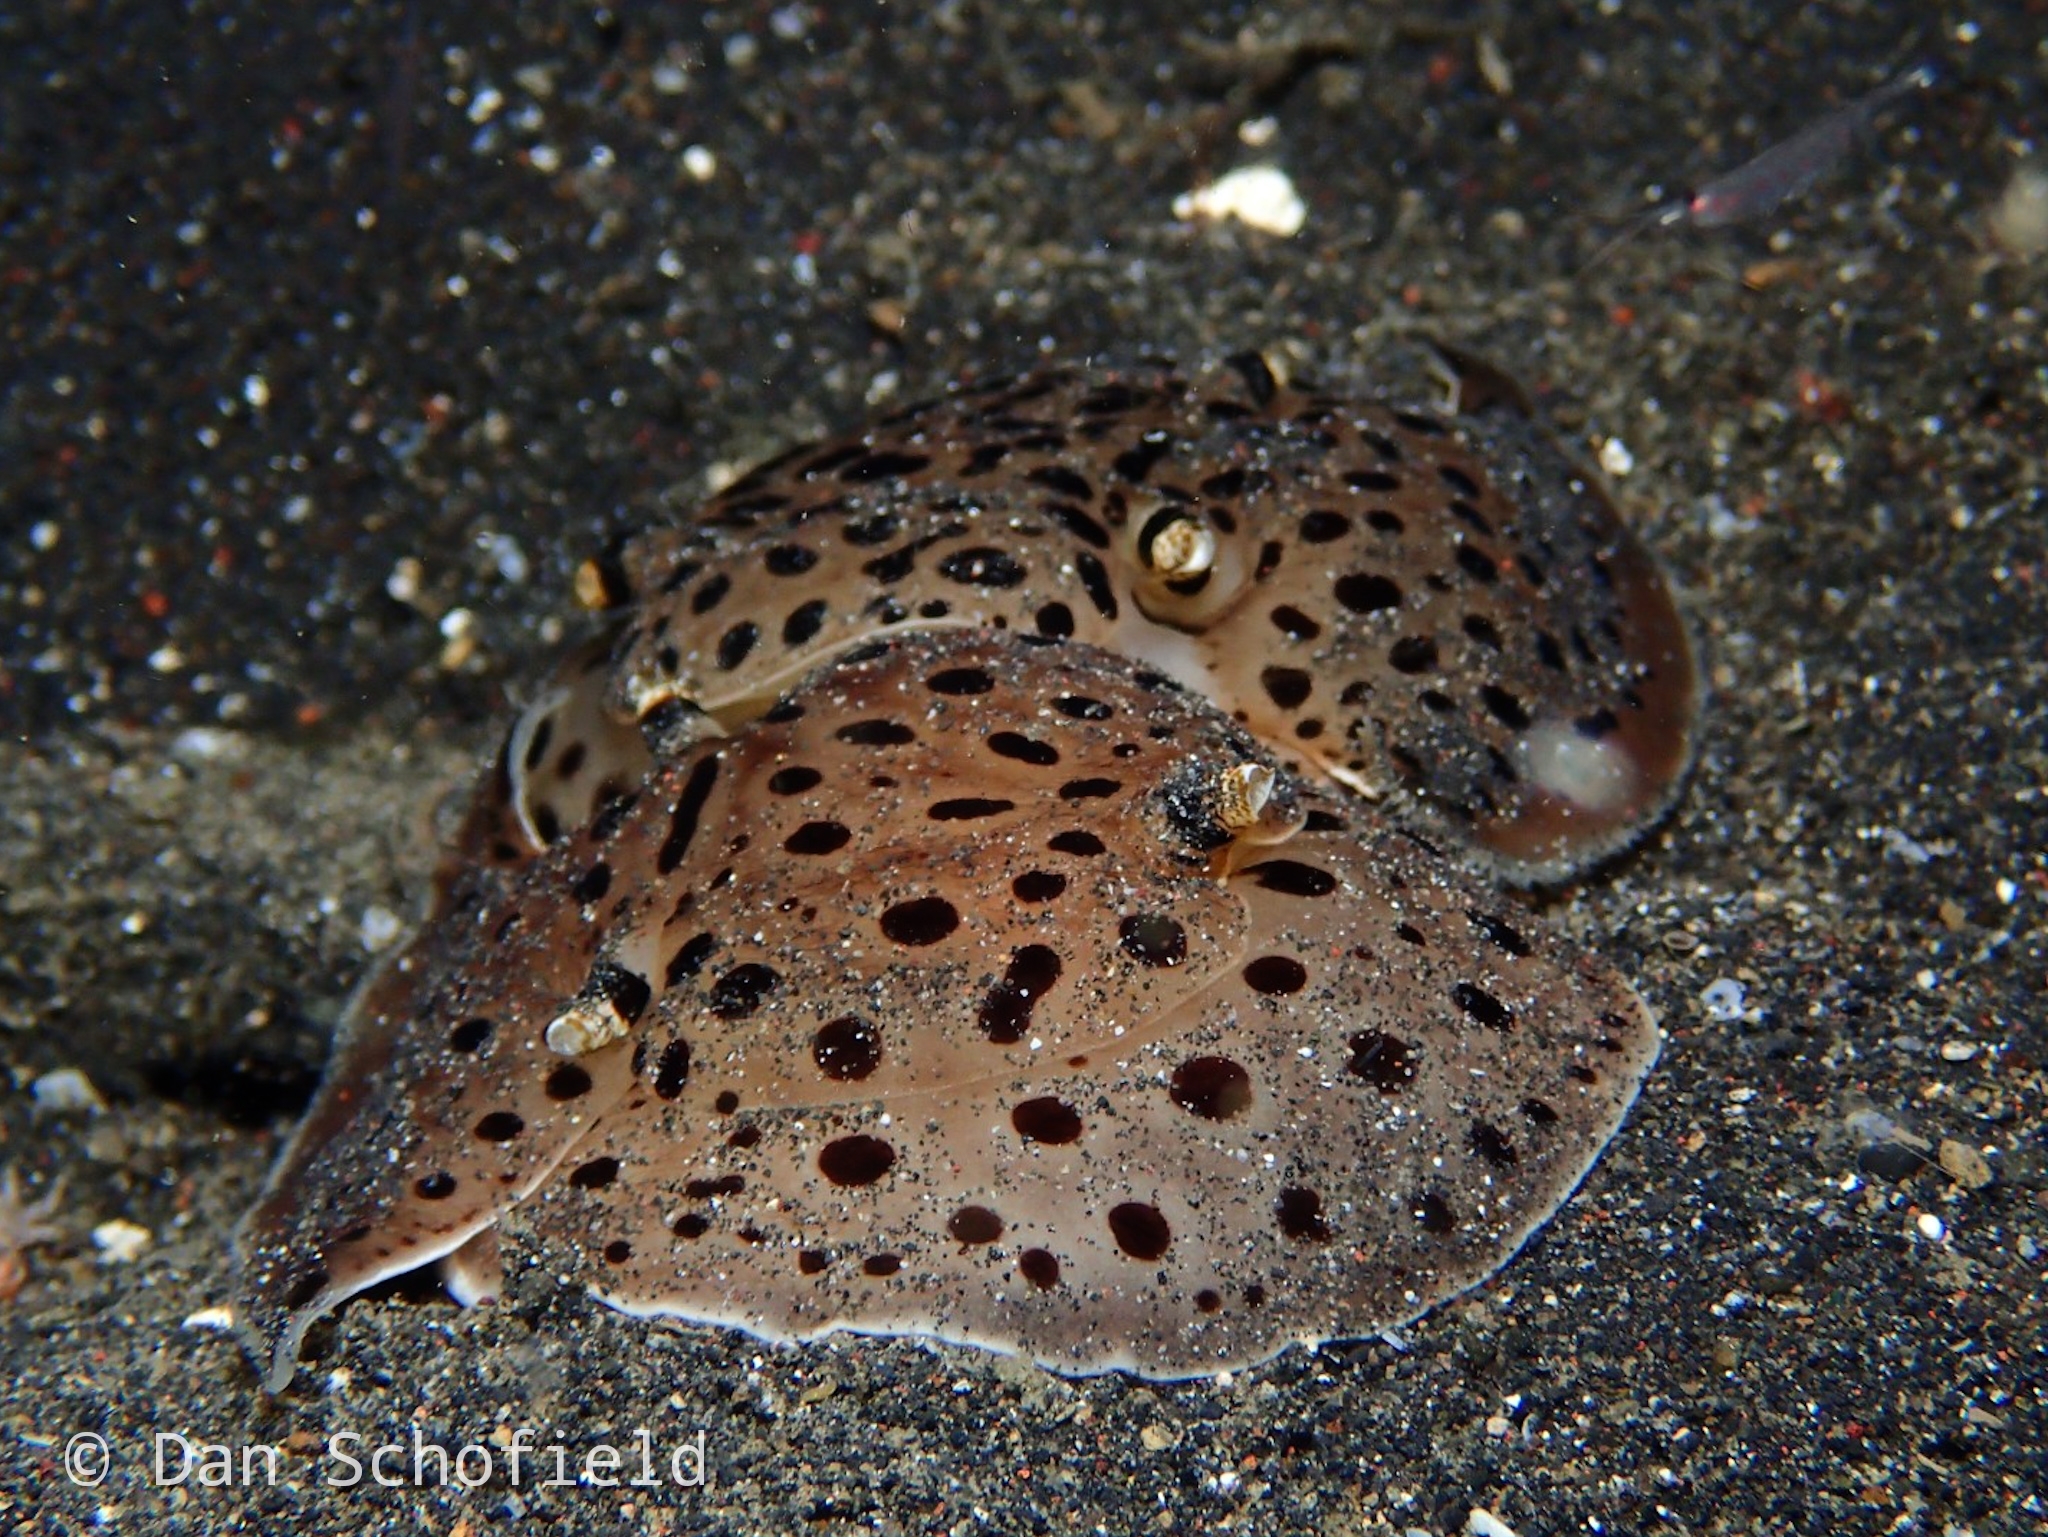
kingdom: Animalia
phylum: Mollusca
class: Gastropoda
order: Pleurobranchida
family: Pleurobranchaeidae
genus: Euselenops
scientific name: Euselenops luniceps
